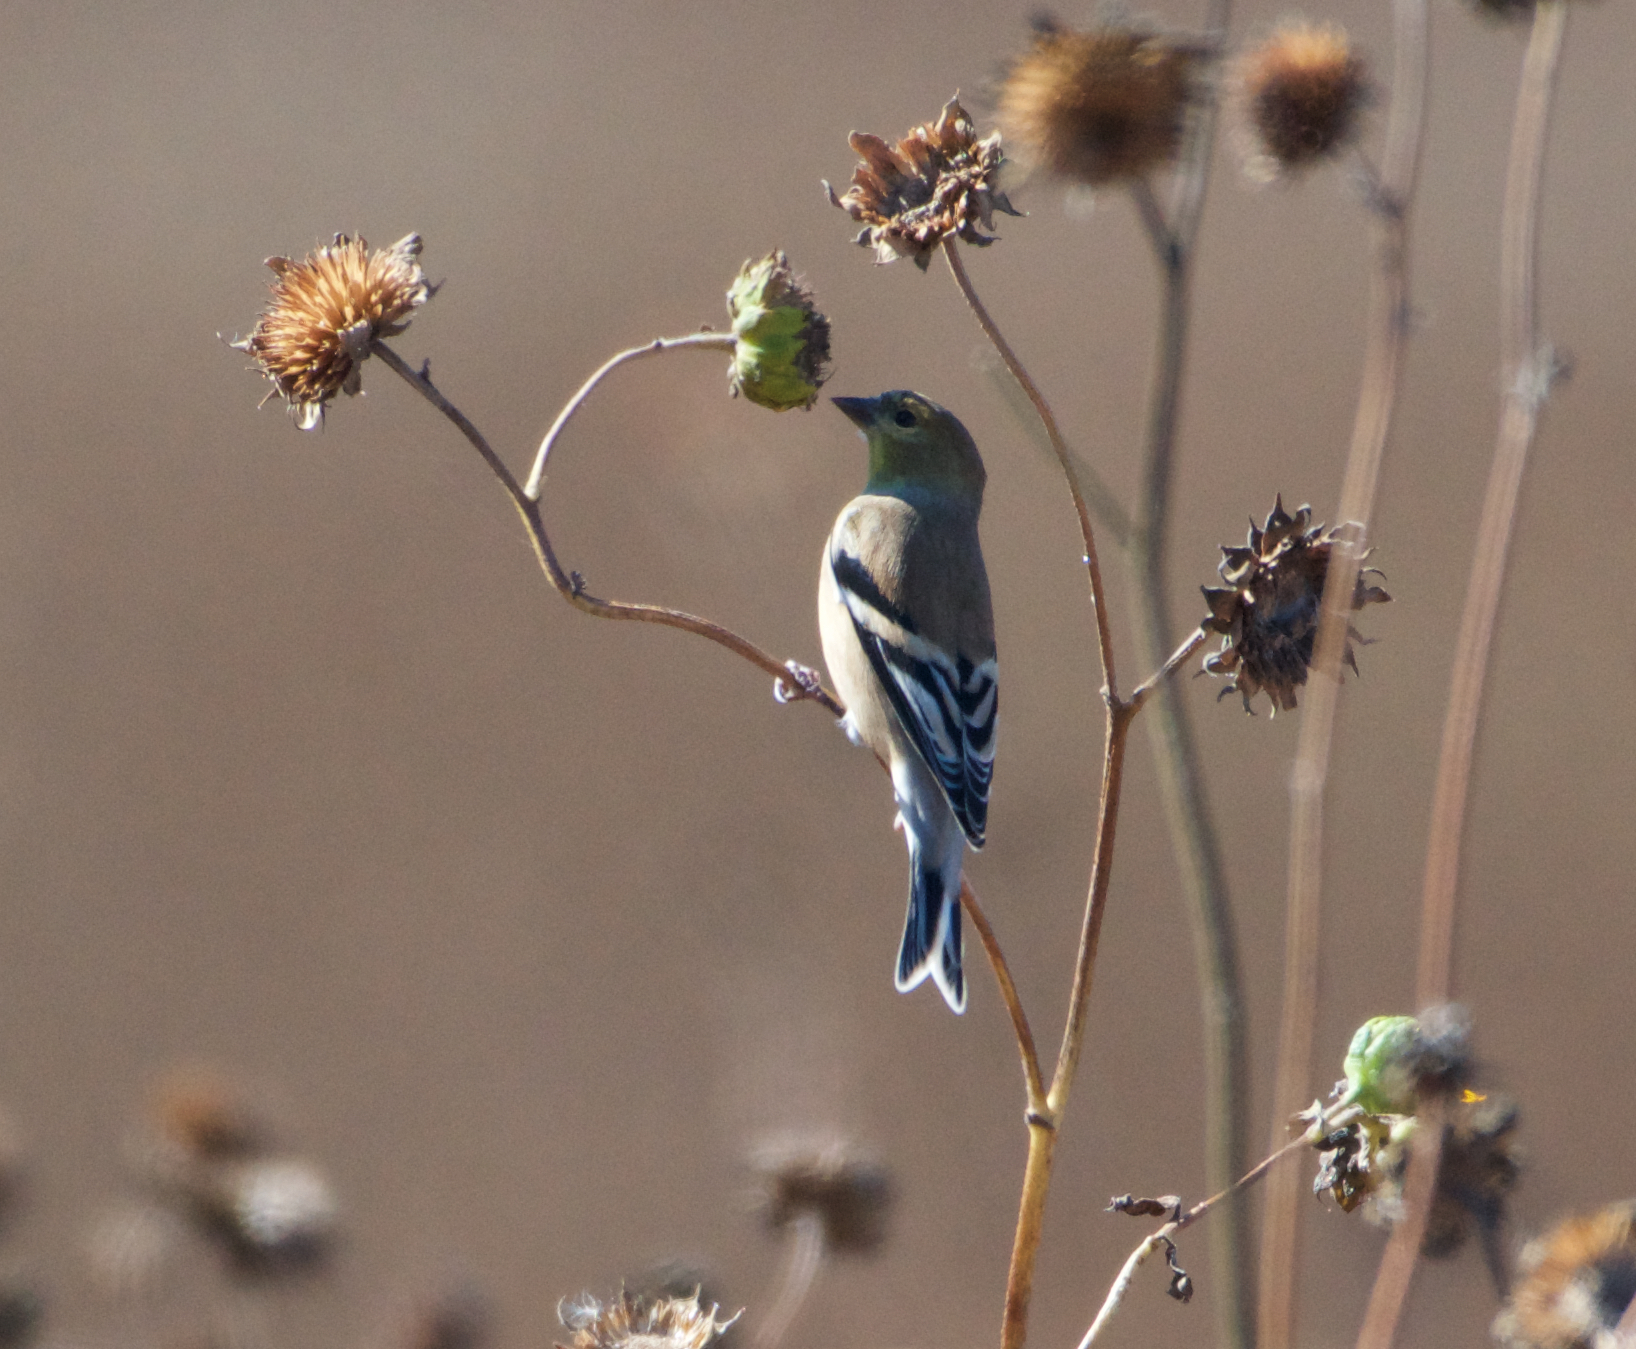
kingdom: Animalia
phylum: Chordata
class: Aves
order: Passeriformes
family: Fringillidae
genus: Spinus
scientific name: Spinus tristis
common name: American goldfinch
